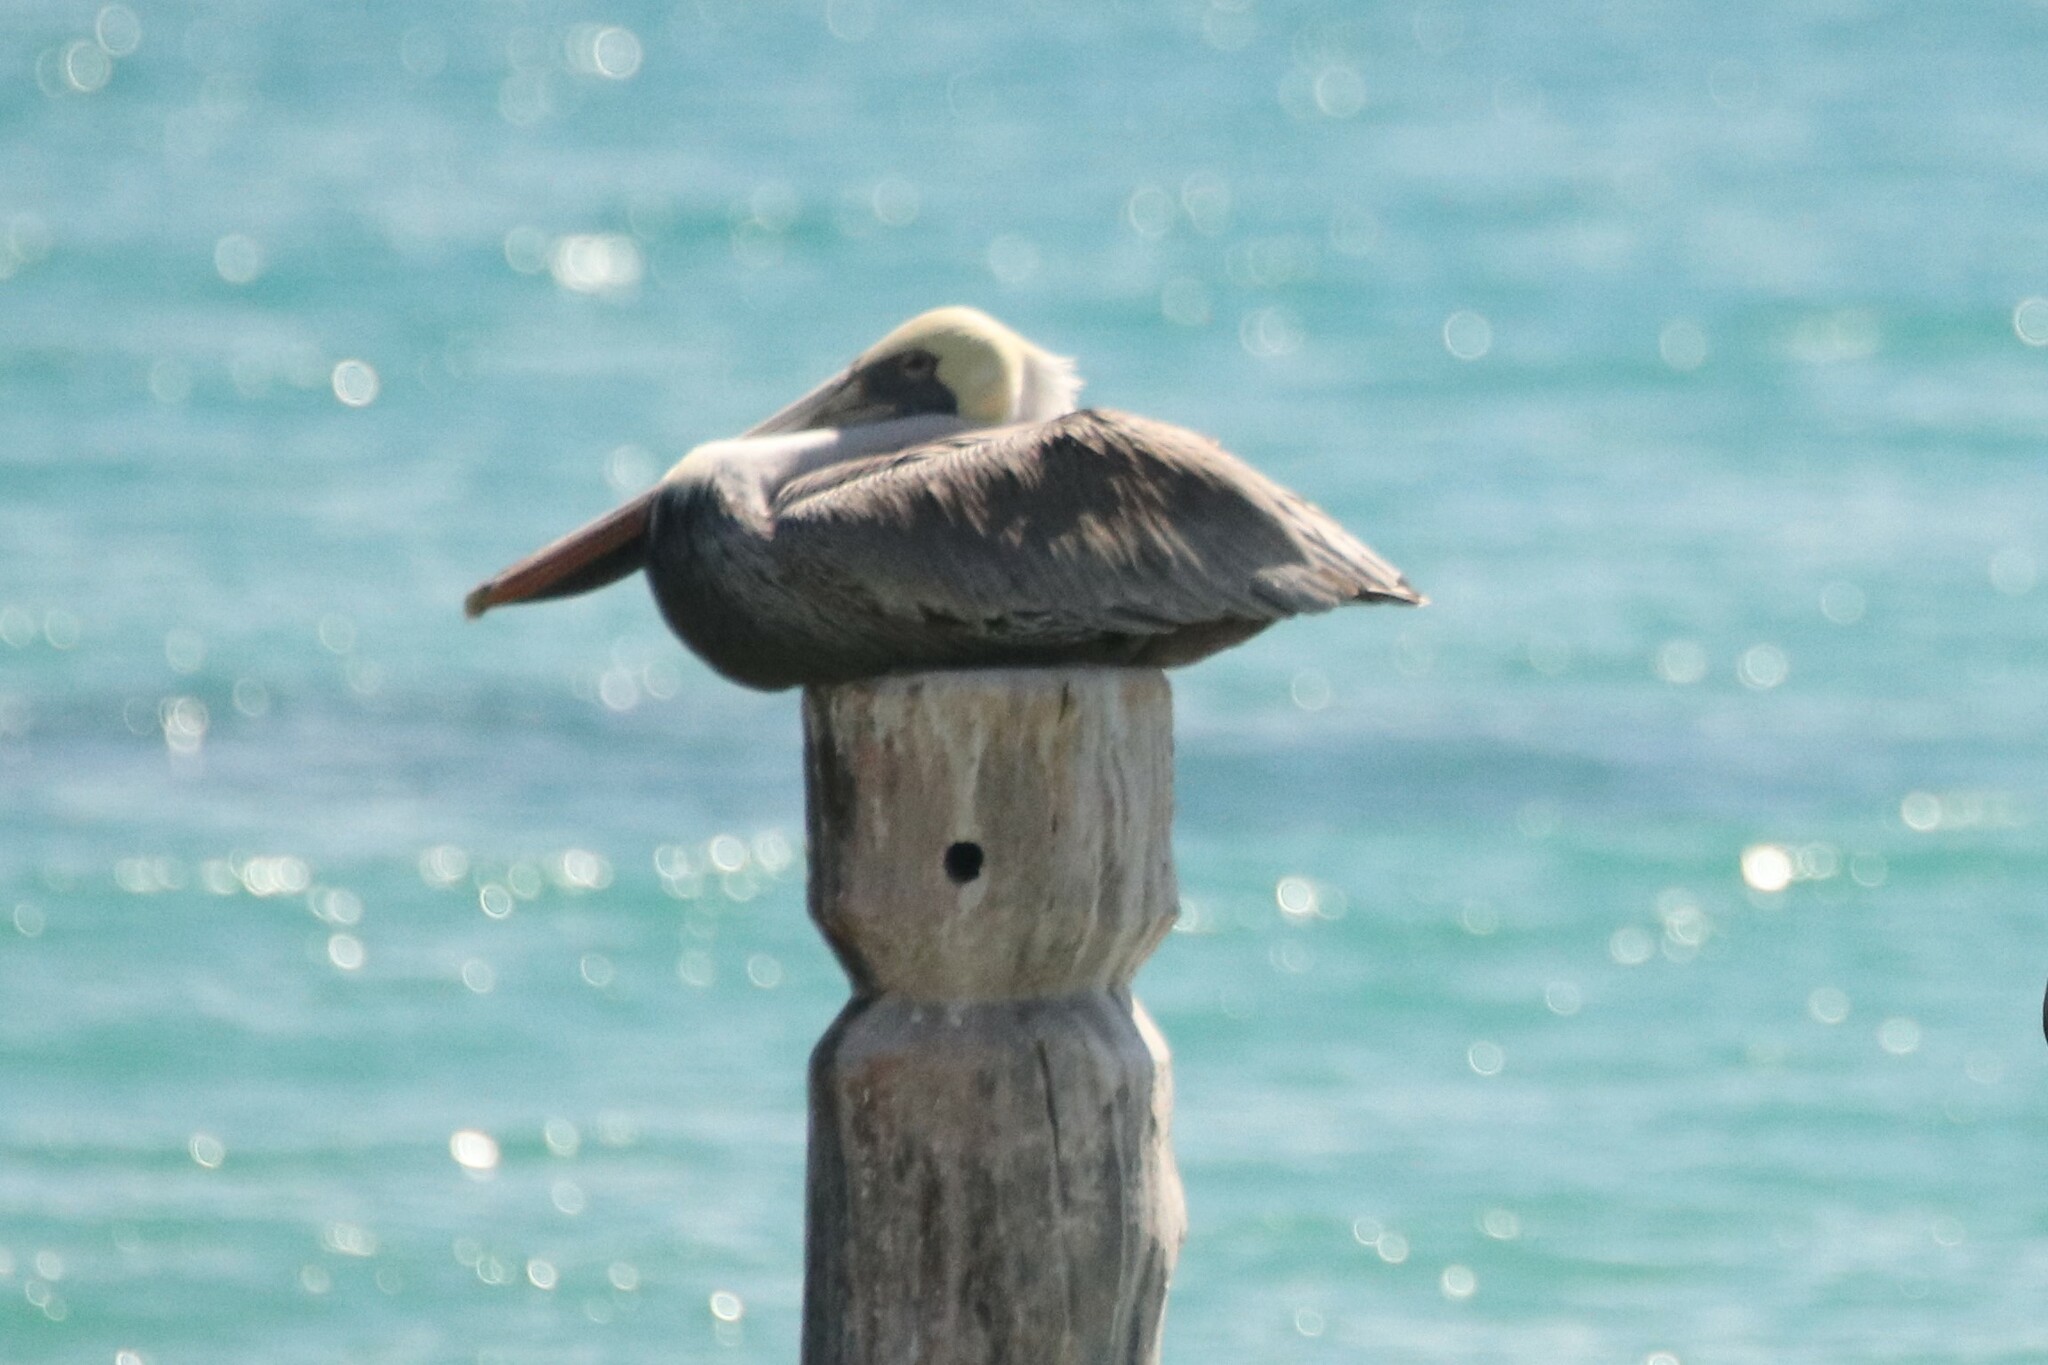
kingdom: Animalia
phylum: Chordata
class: Aves
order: Pelecaniformes
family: Pelecanidae
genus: Pelecanus
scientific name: Pelecanus occidentalis
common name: Brown pelican
